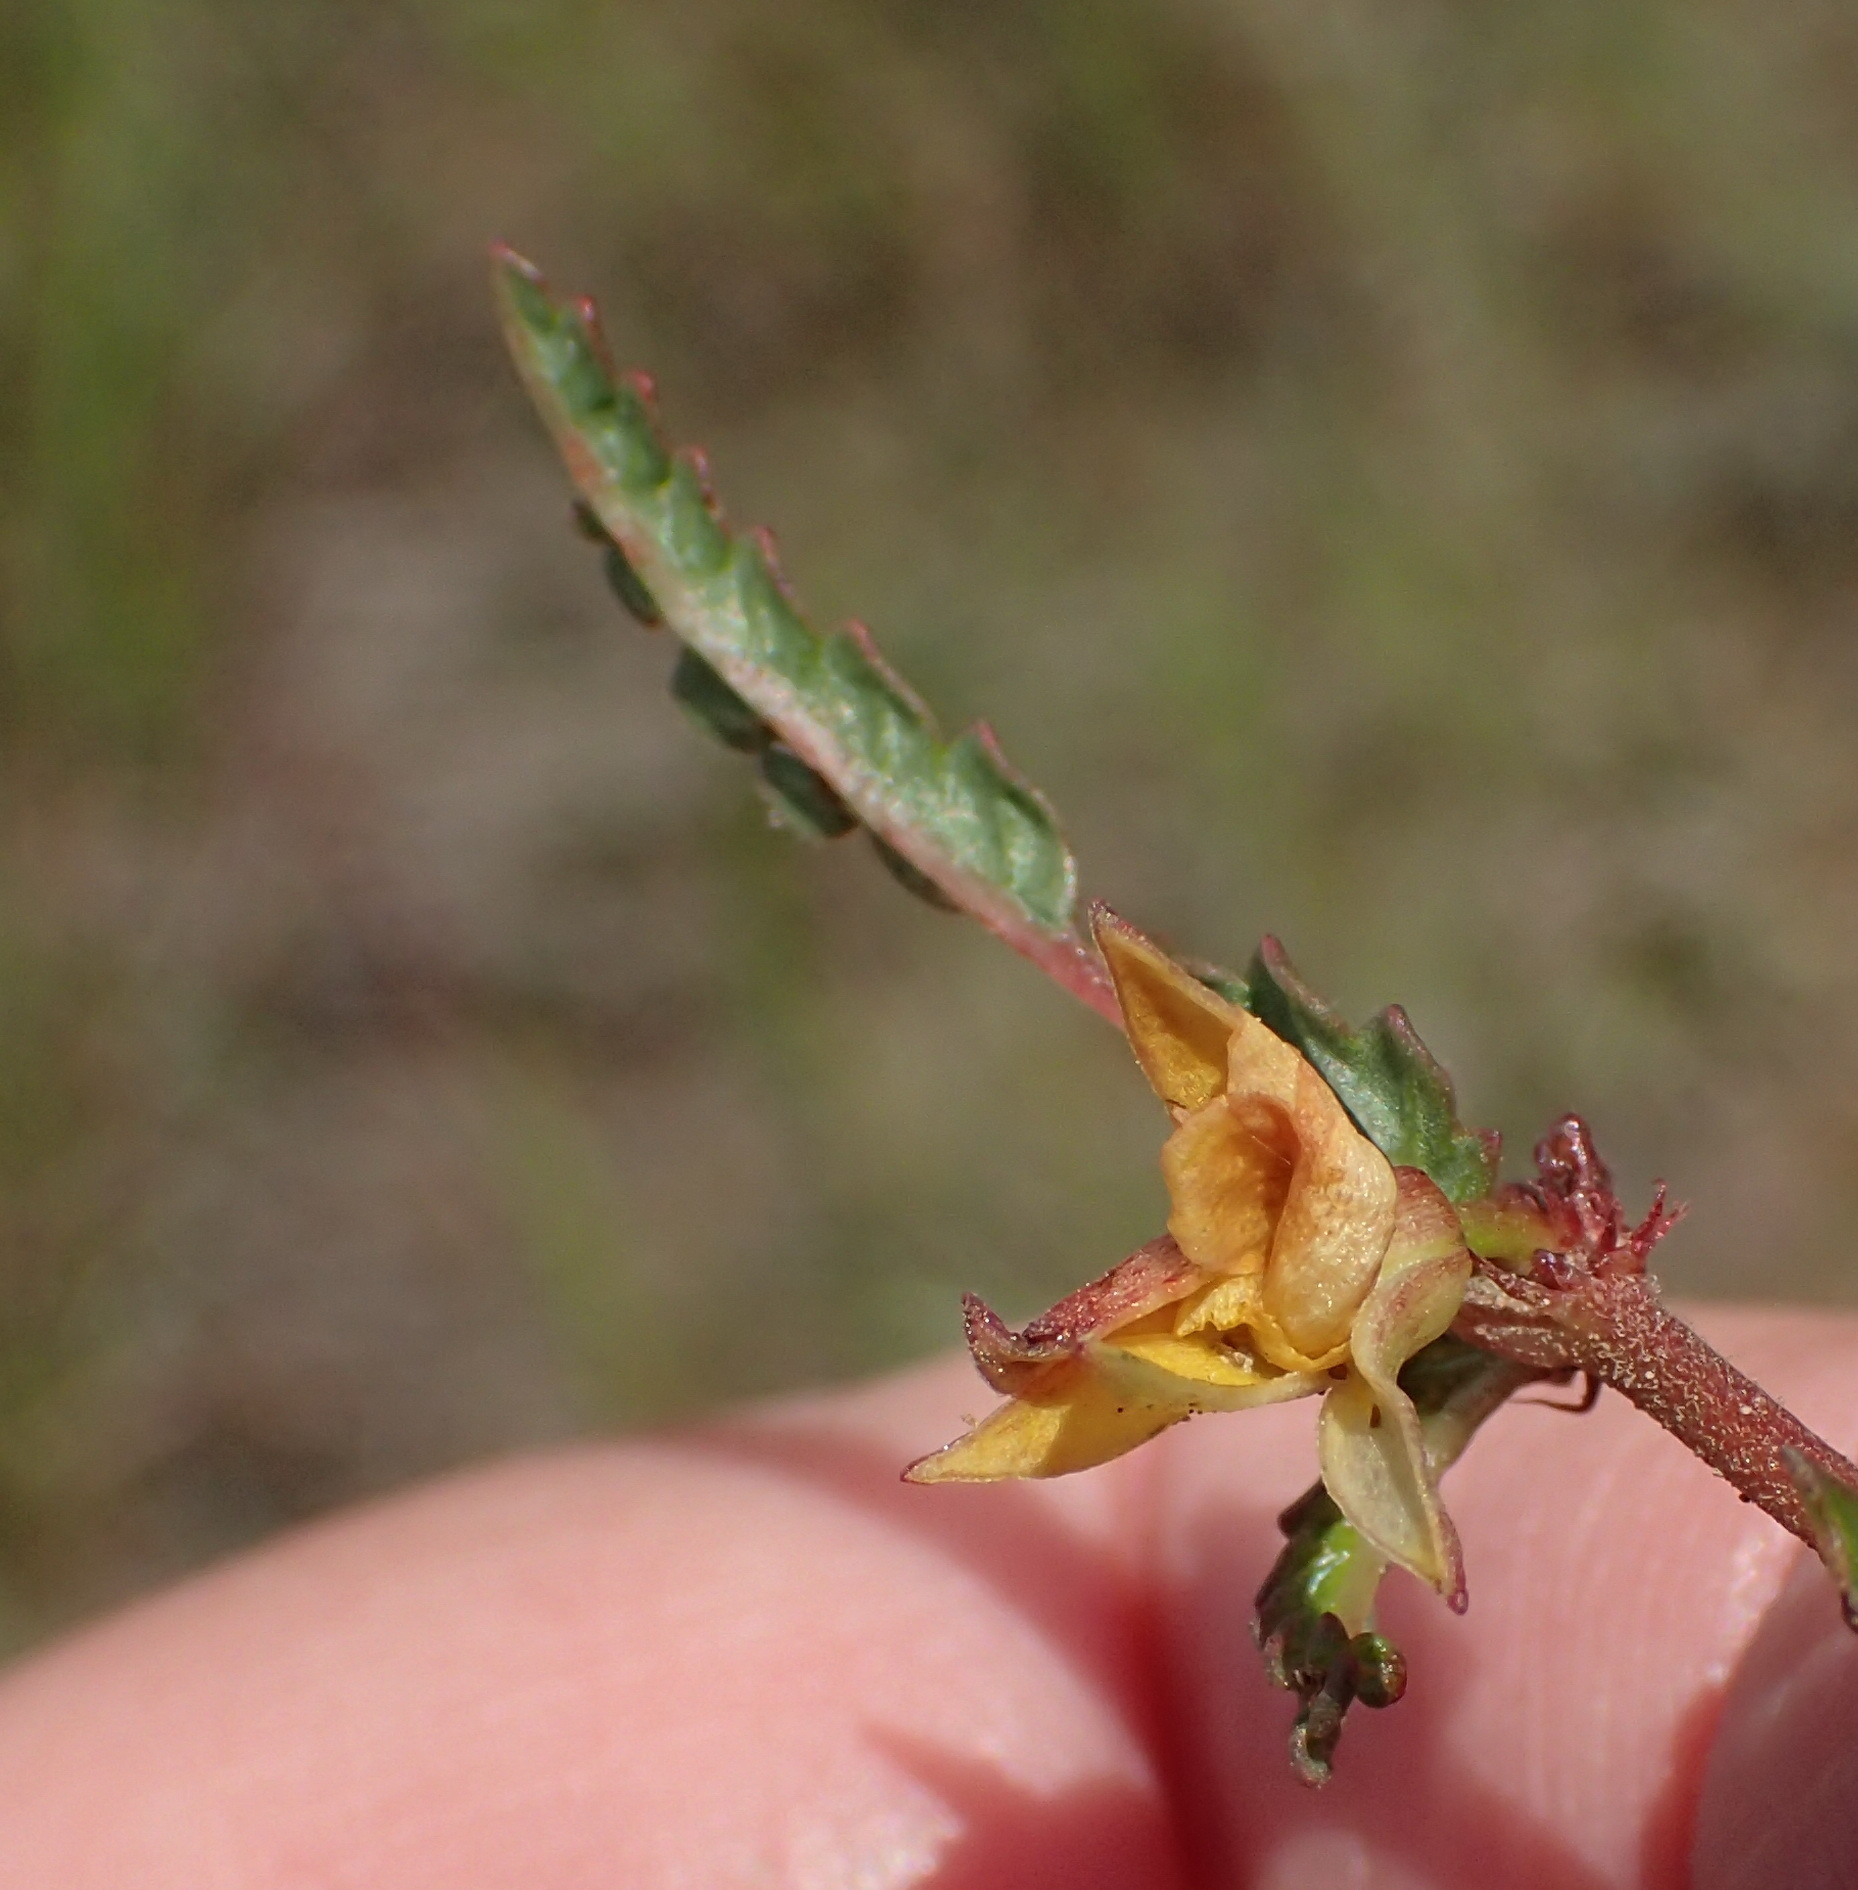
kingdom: Plantae
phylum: Tracheophyta
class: Magnoliopsida
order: Malvales
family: Malvaceae
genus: Corchorus
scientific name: Corchorus asplenifolius
